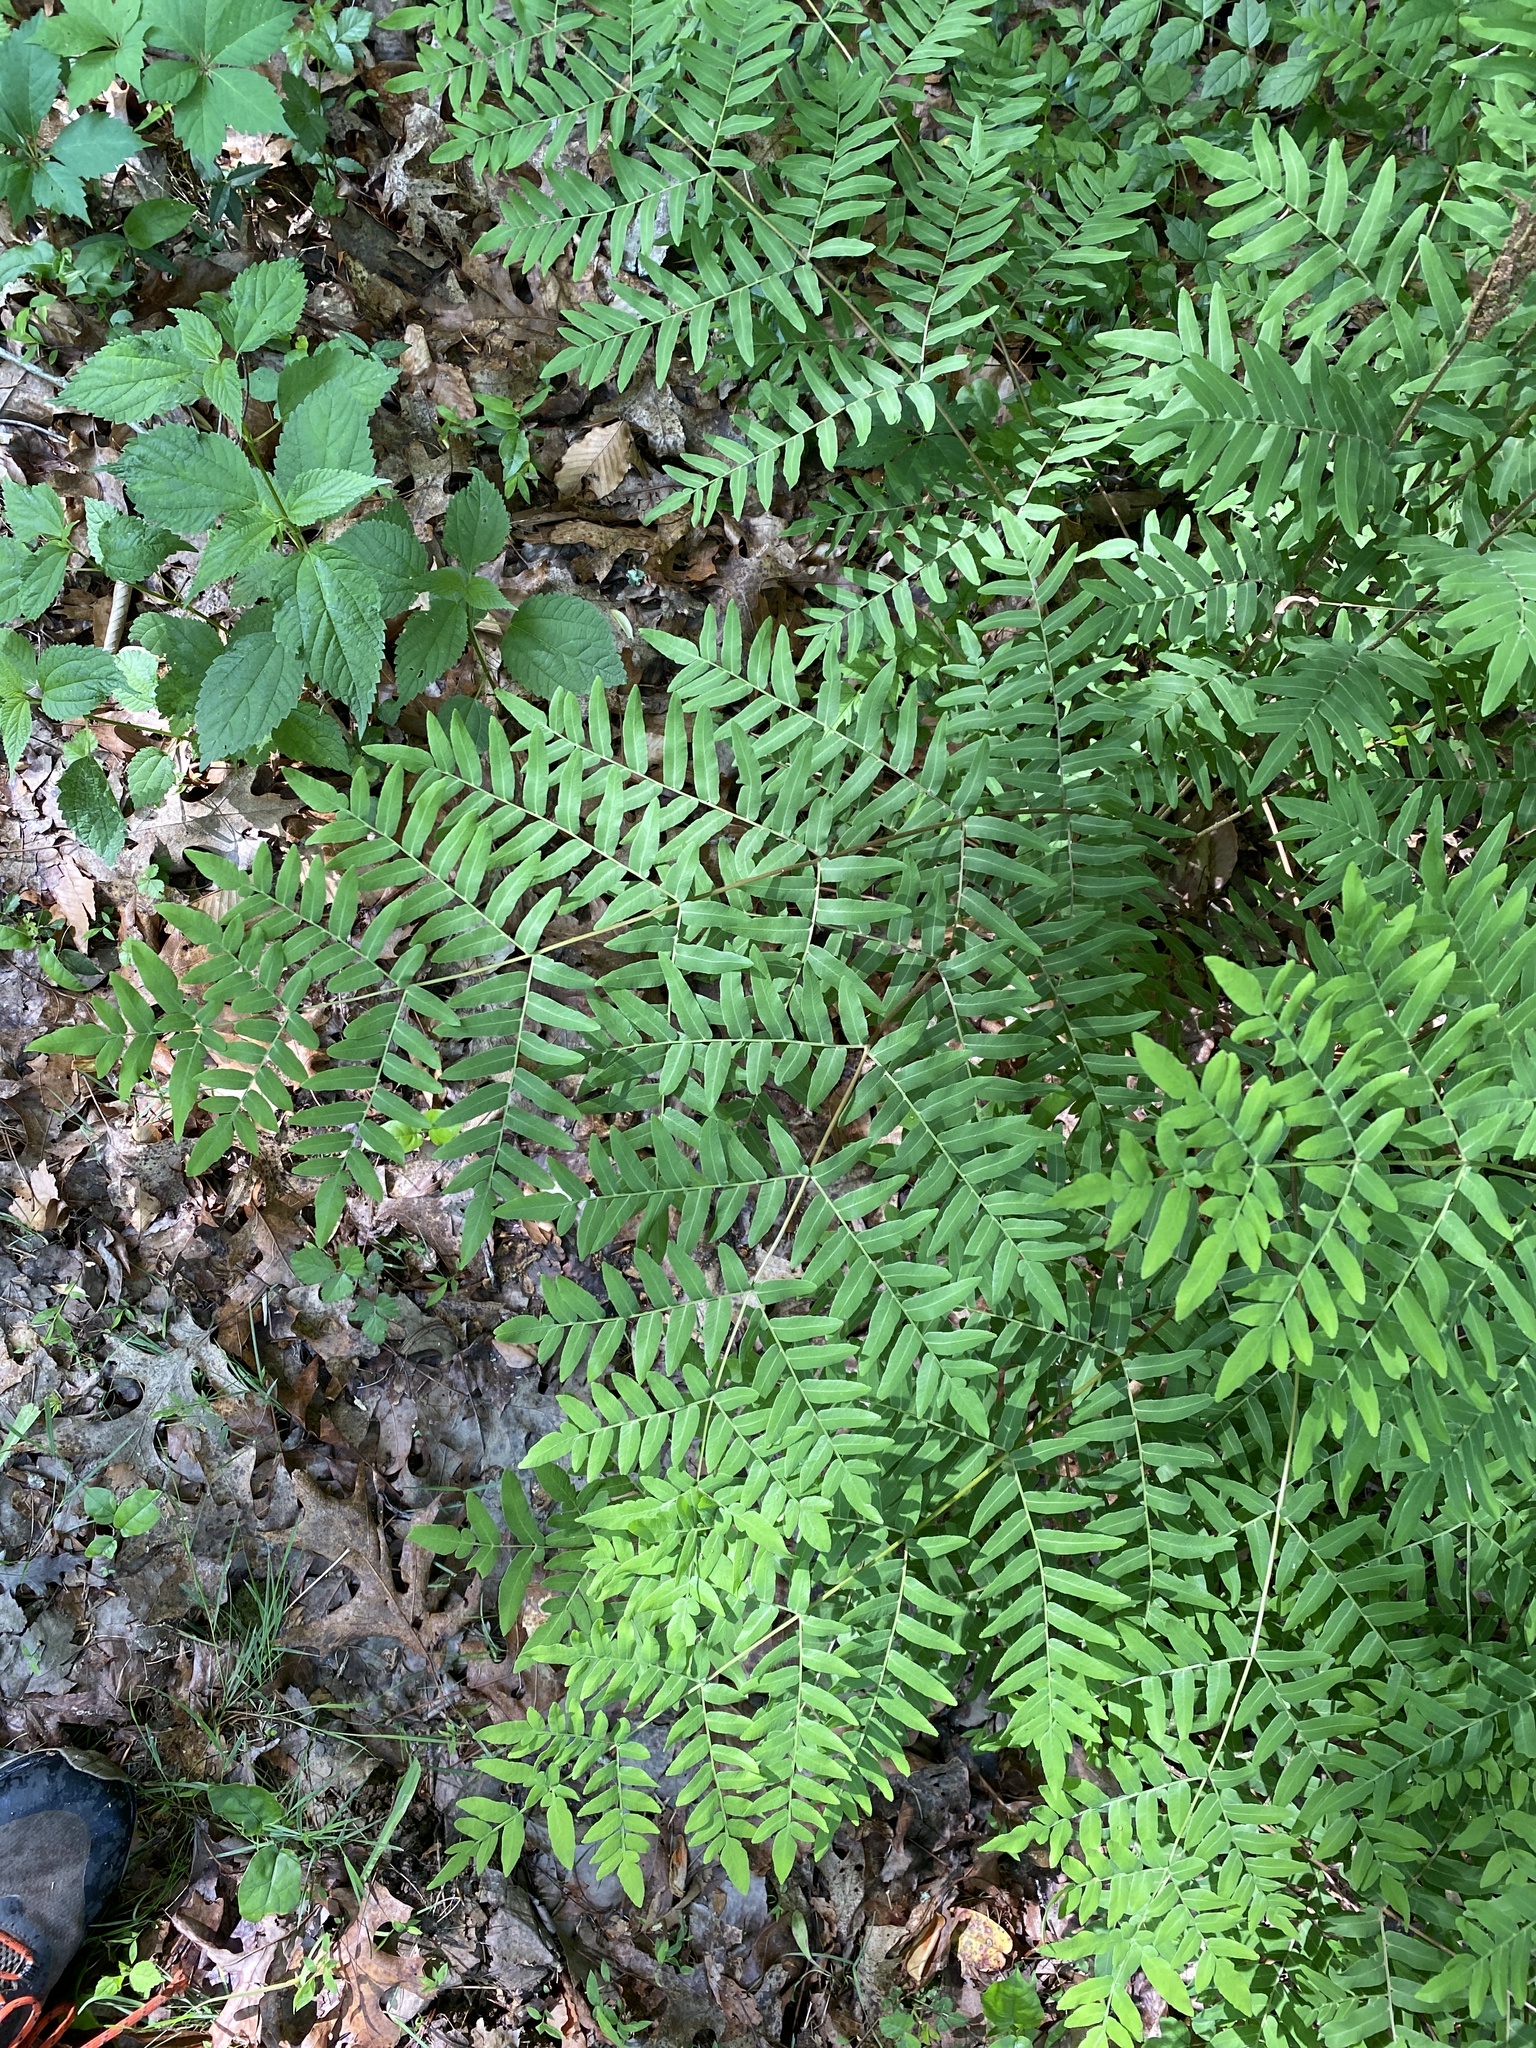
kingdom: Plantae
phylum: Tracheophyta
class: Polypodiopsida
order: Osmundales
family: Osmundaceae
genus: Osmunda
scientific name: Osmunda spectabilis
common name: American royal fern
